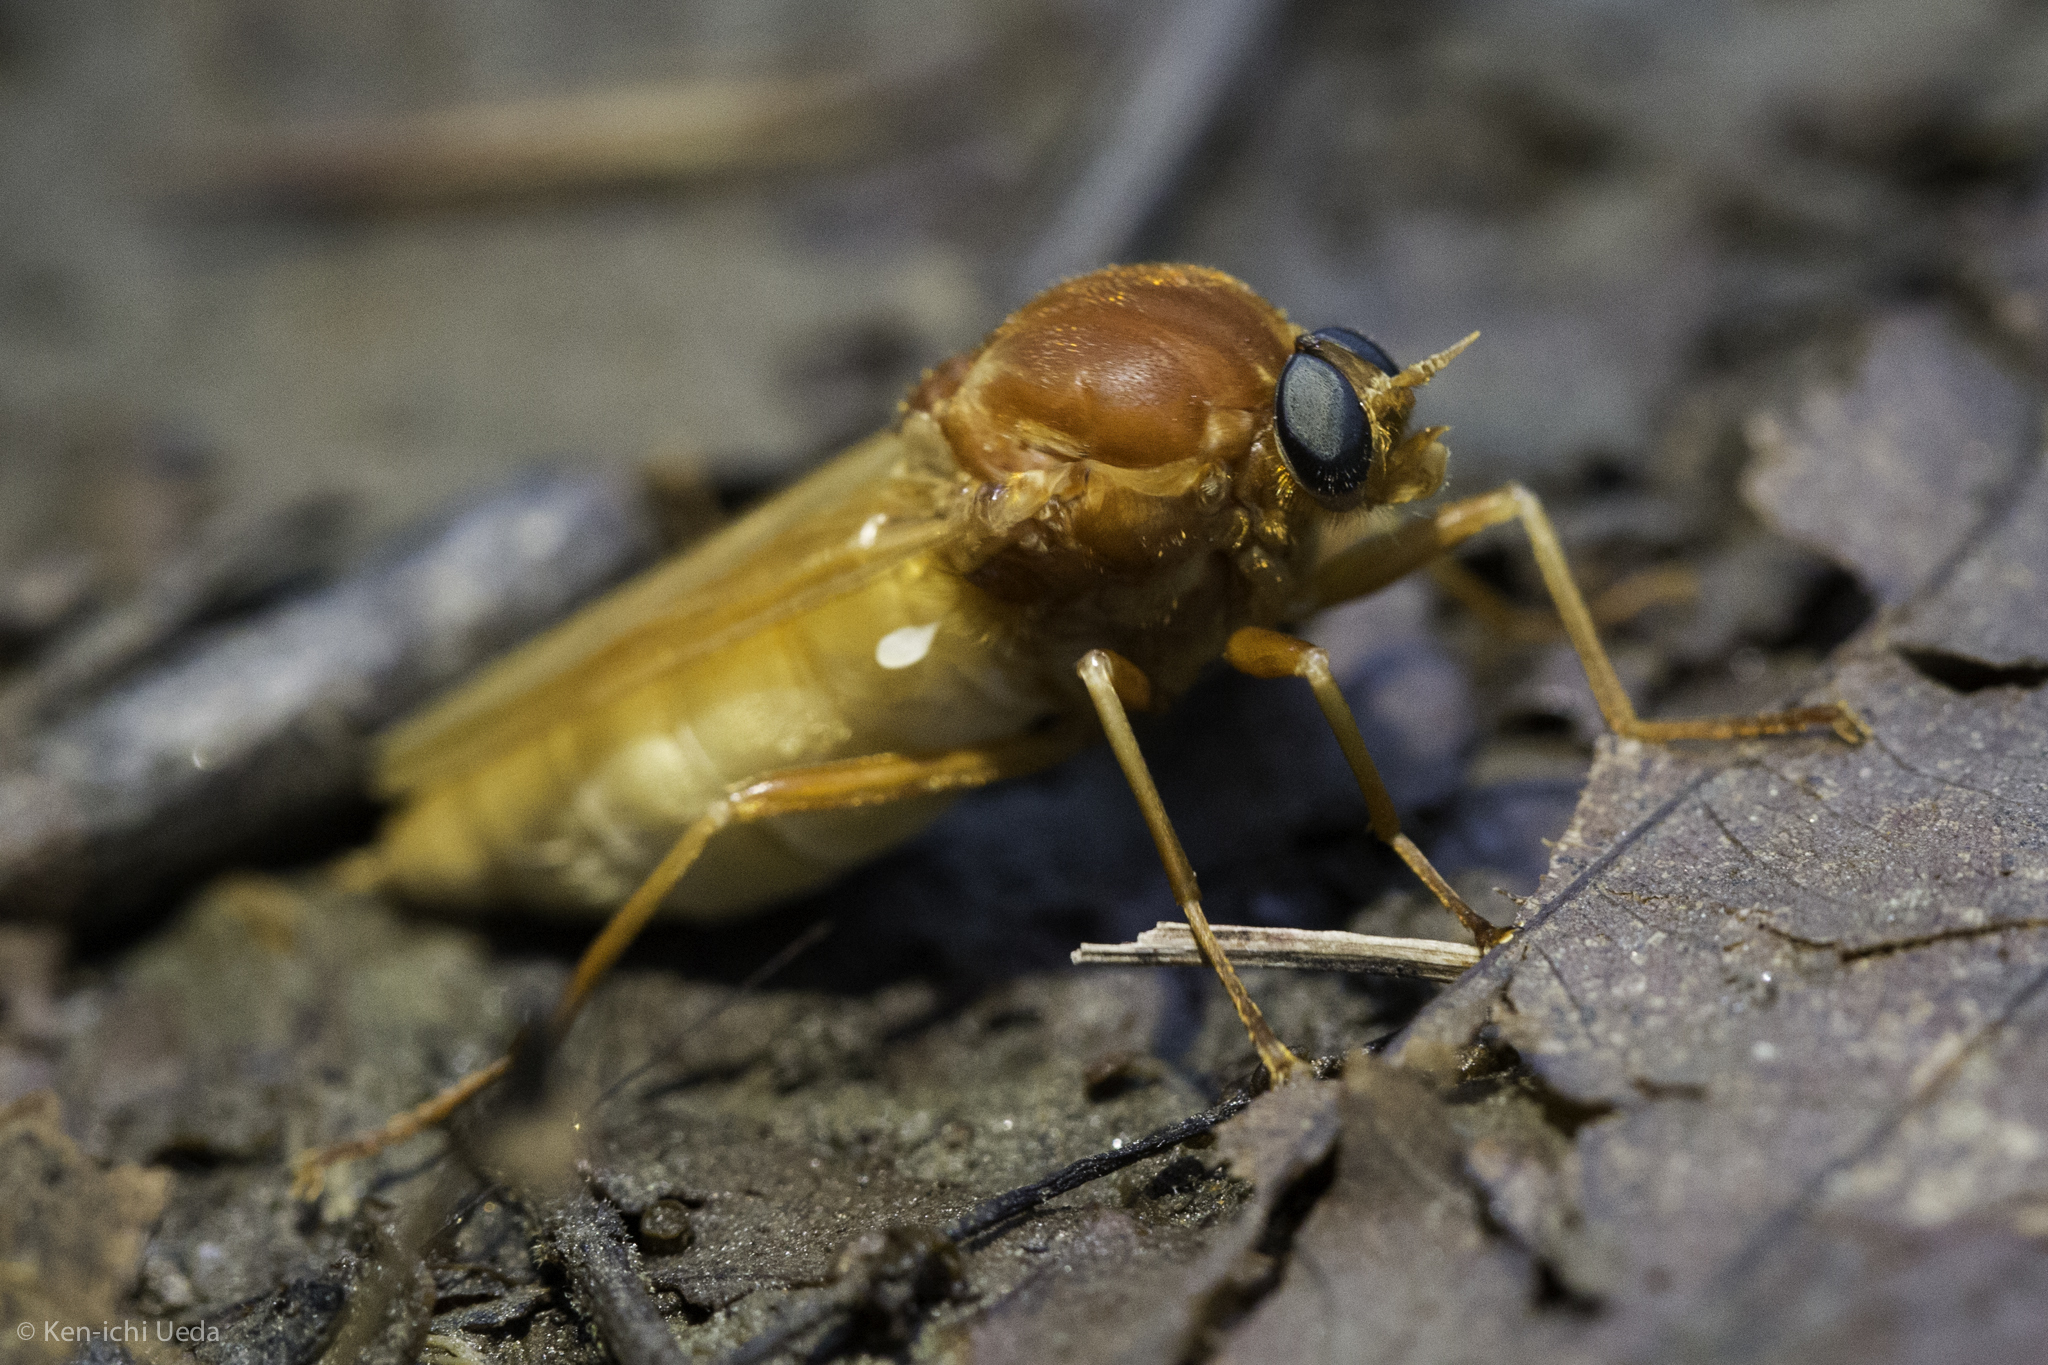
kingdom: Animalia
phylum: Arthropoda
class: Insecta
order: Diptera
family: Xylophagidae
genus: Coenomyia
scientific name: Coenomyia ferruginea
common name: Stink fly
